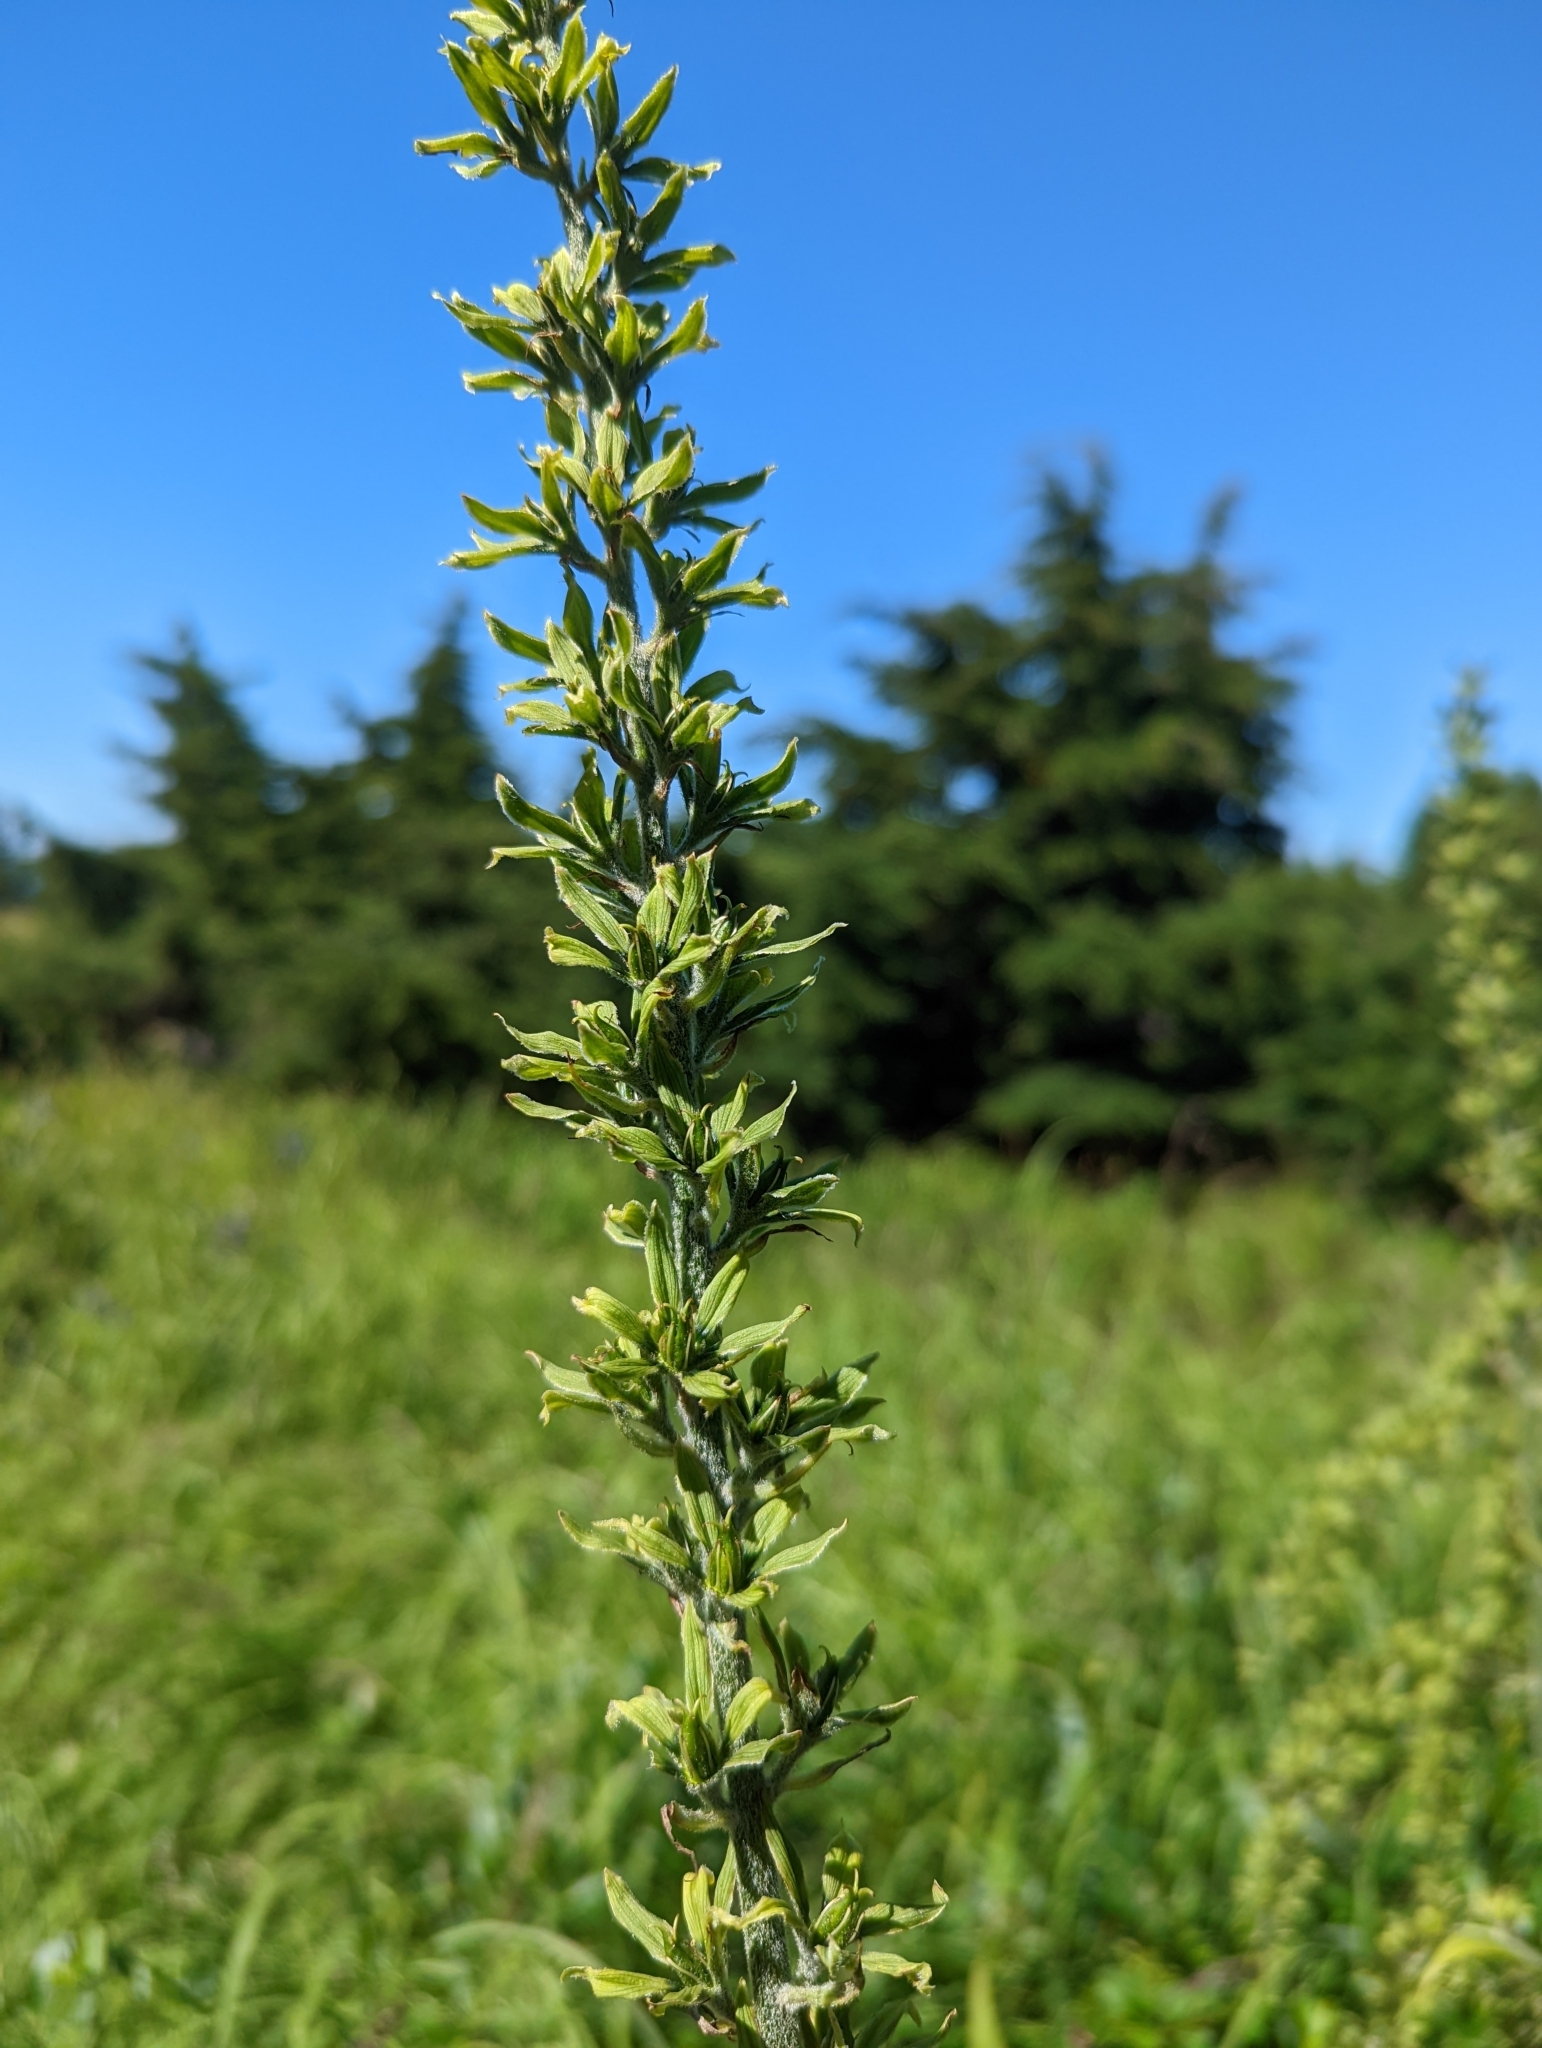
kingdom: Plantae
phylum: Tracheophyta
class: Liliopsida
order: Liliales
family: Melanthiaceae
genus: Veratrum
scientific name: Veratrum viride
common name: American false hellebore
